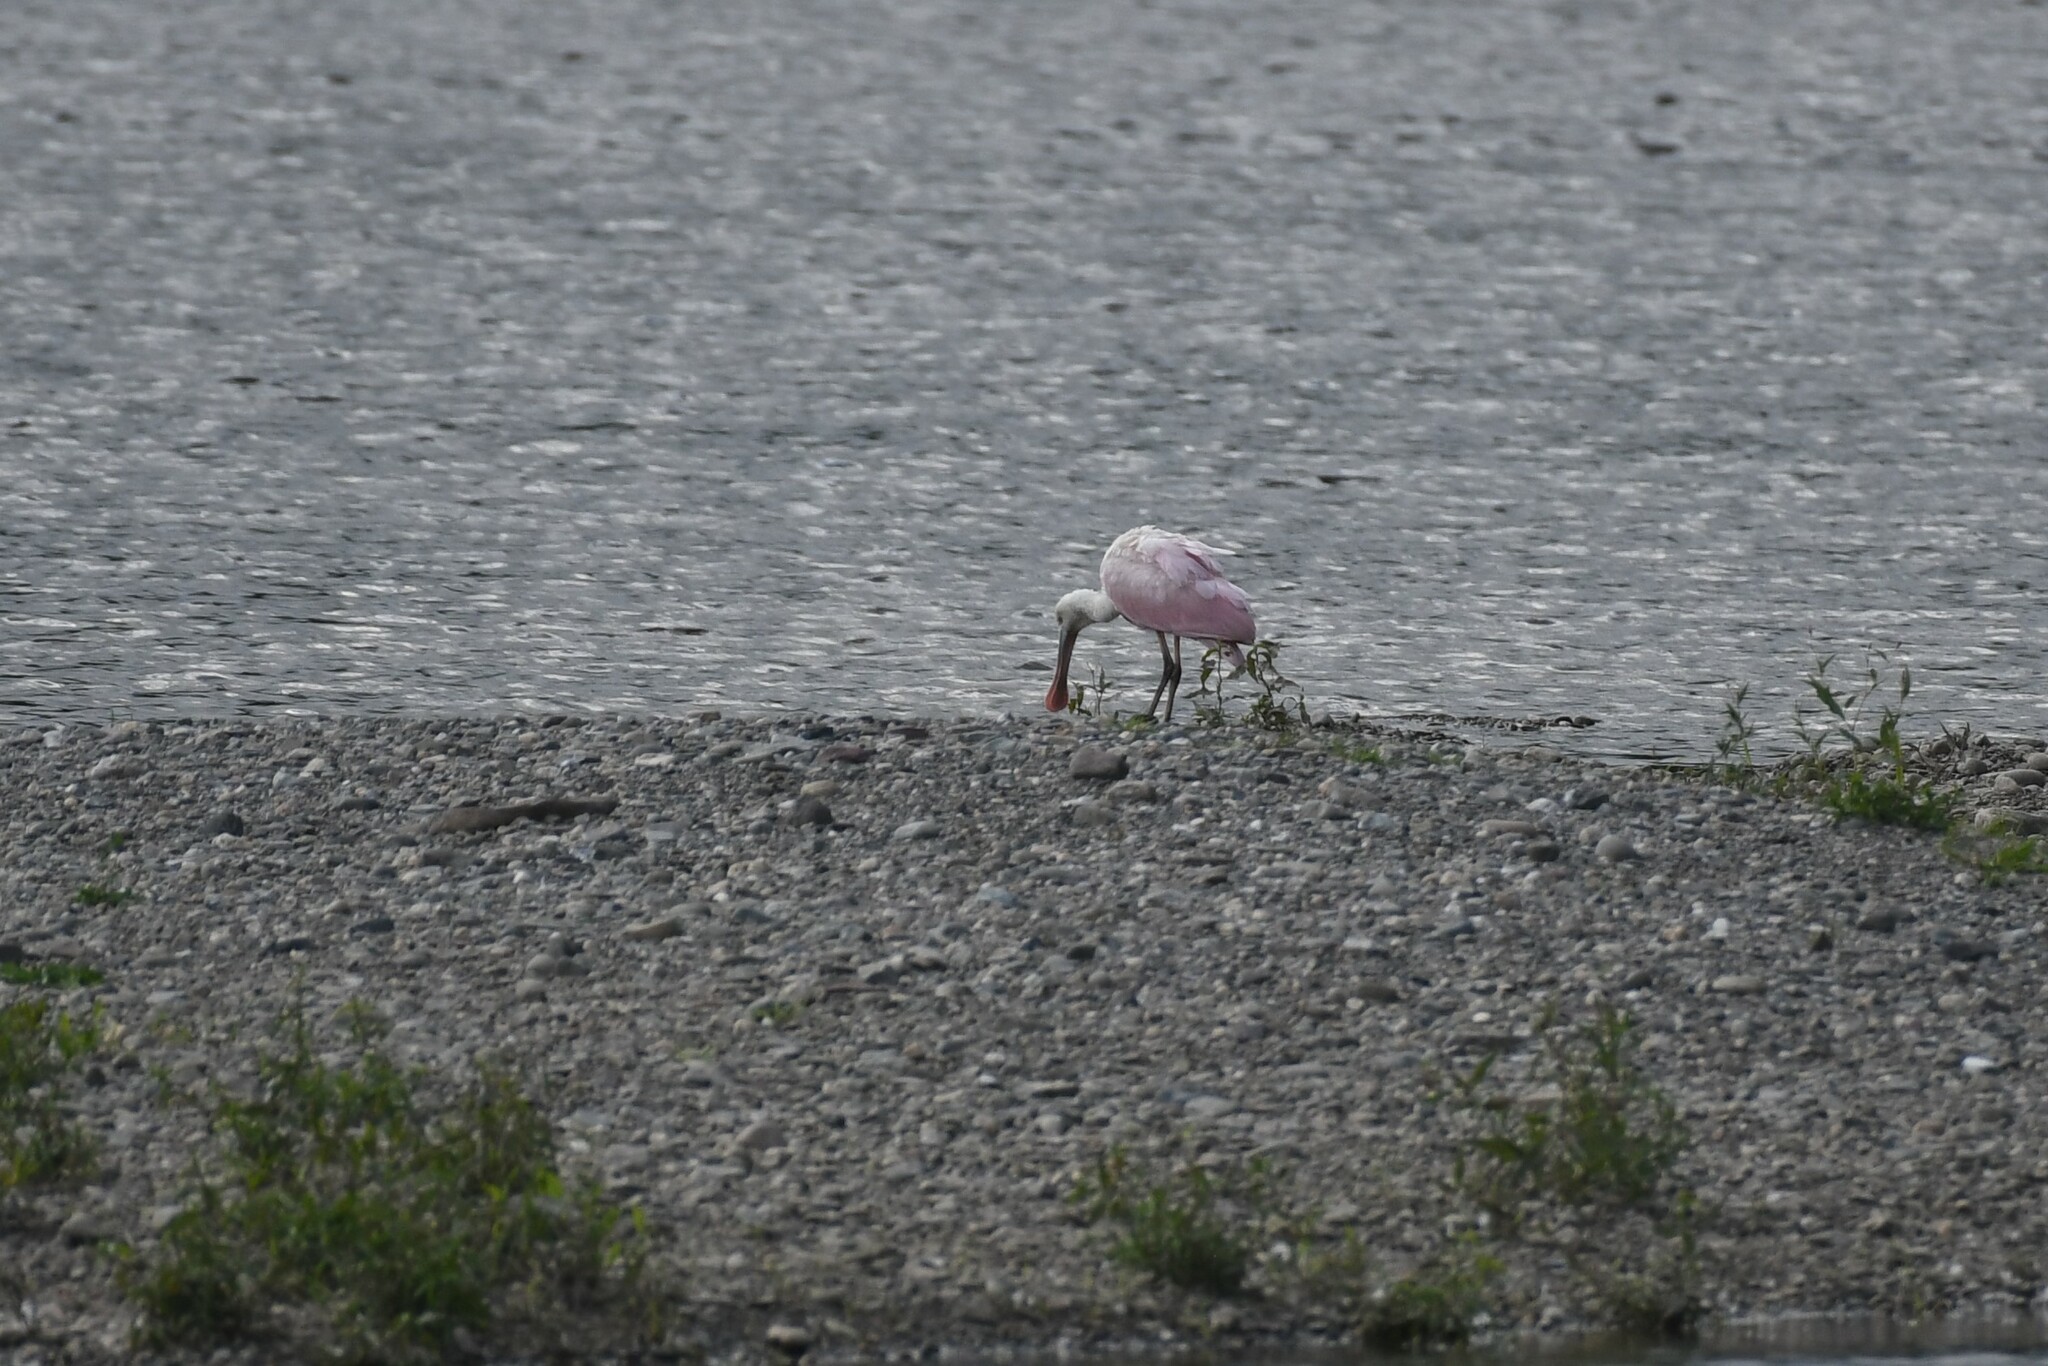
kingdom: Animalia
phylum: Chordata
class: Aves
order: Pelecaniformes
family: Threskiornithidae
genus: Platalea
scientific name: Platalea ajaja
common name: Roseate spoonbill
